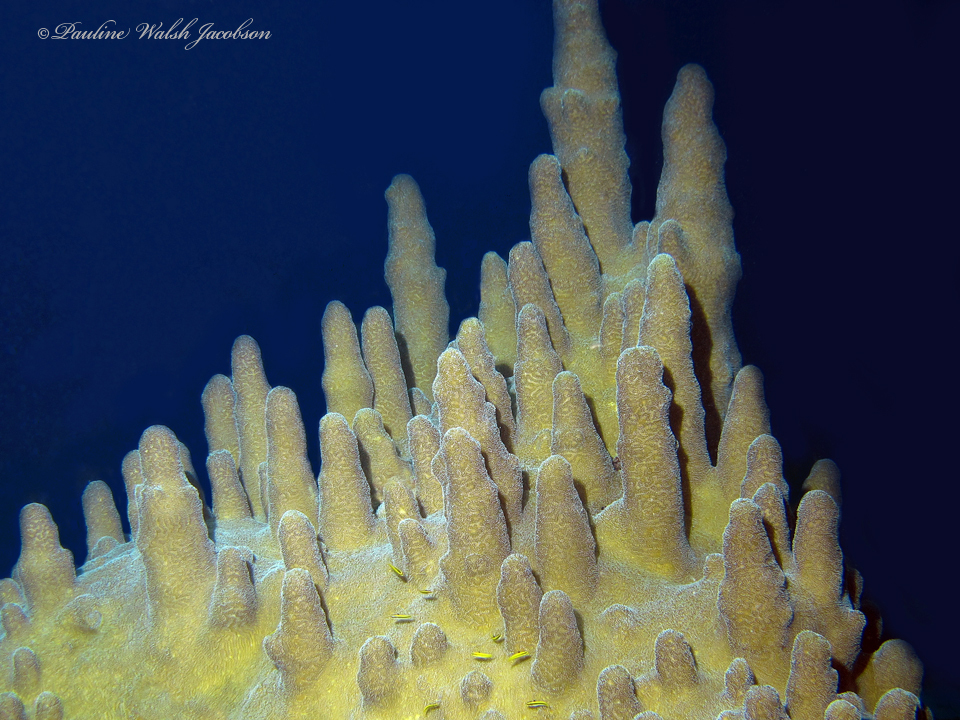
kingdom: Animalia
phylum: Cnidaria
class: Anthozoa
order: Scleractinia
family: Meandrinidae
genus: Dendrogyra
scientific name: Dendrogyra cylindrus
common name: Pillar coral
